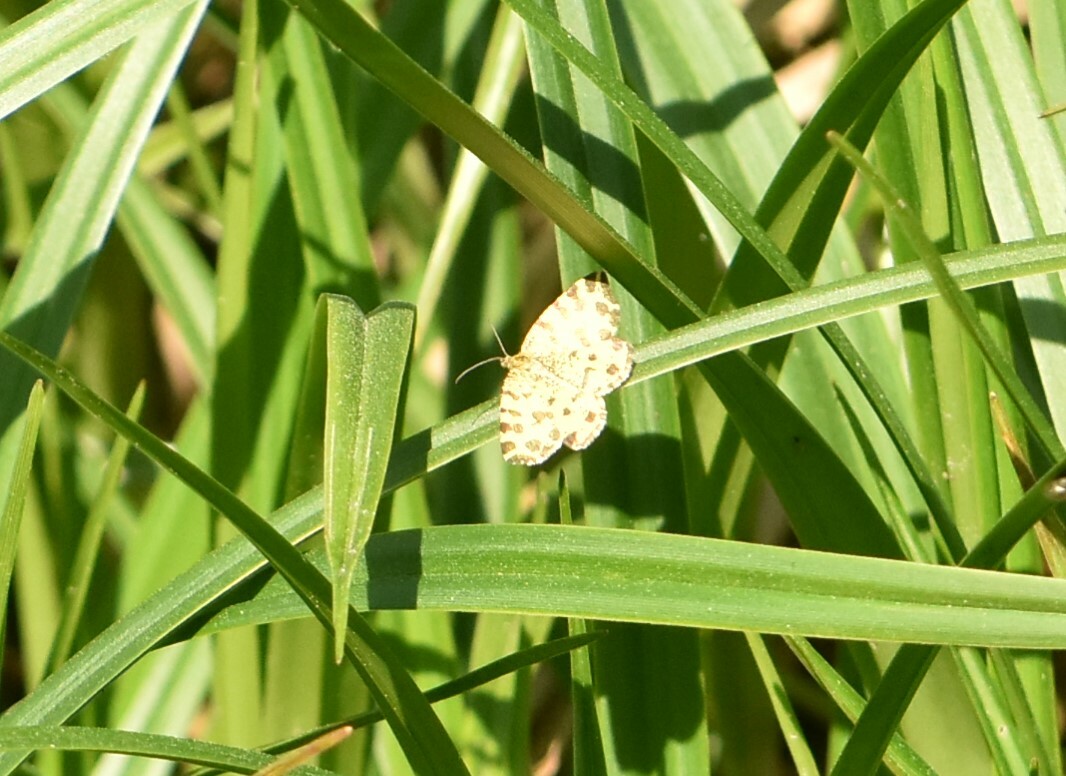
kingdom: Animalia
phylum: Arthropoda
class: Insecta
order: Lepidoptera
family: Geometridae
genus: Pseudopanthera
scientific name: Pseudopanthera macularia
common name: Speckled yellow
